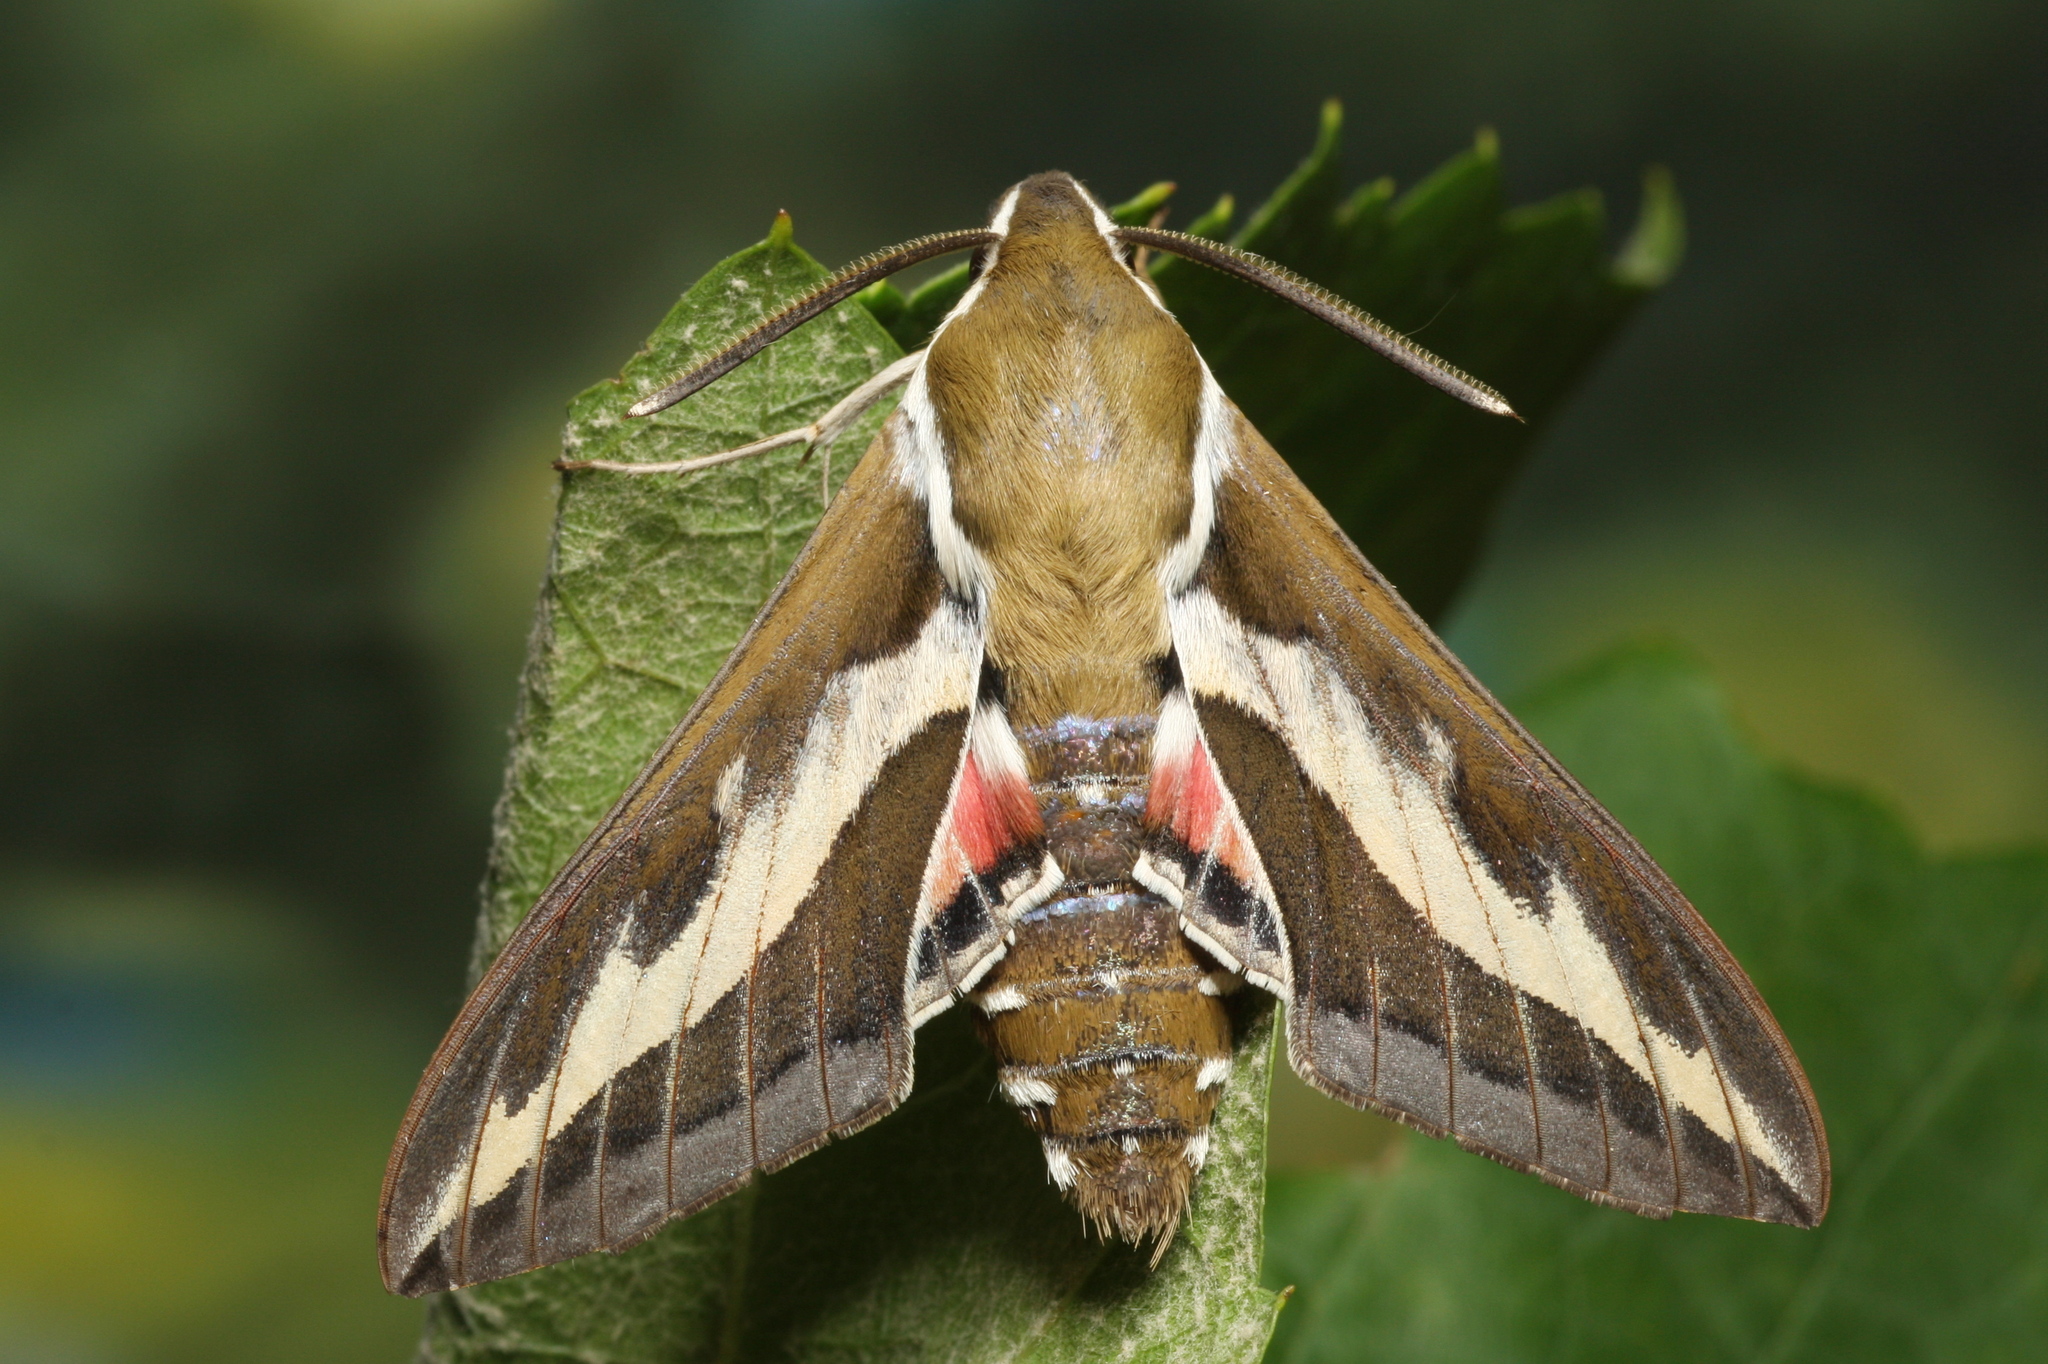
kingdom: Animalia
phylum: Arthropoda
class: Insecta
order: Lepidoptera
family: Sphingidae
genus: Hyles
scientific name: Hyles gallii
